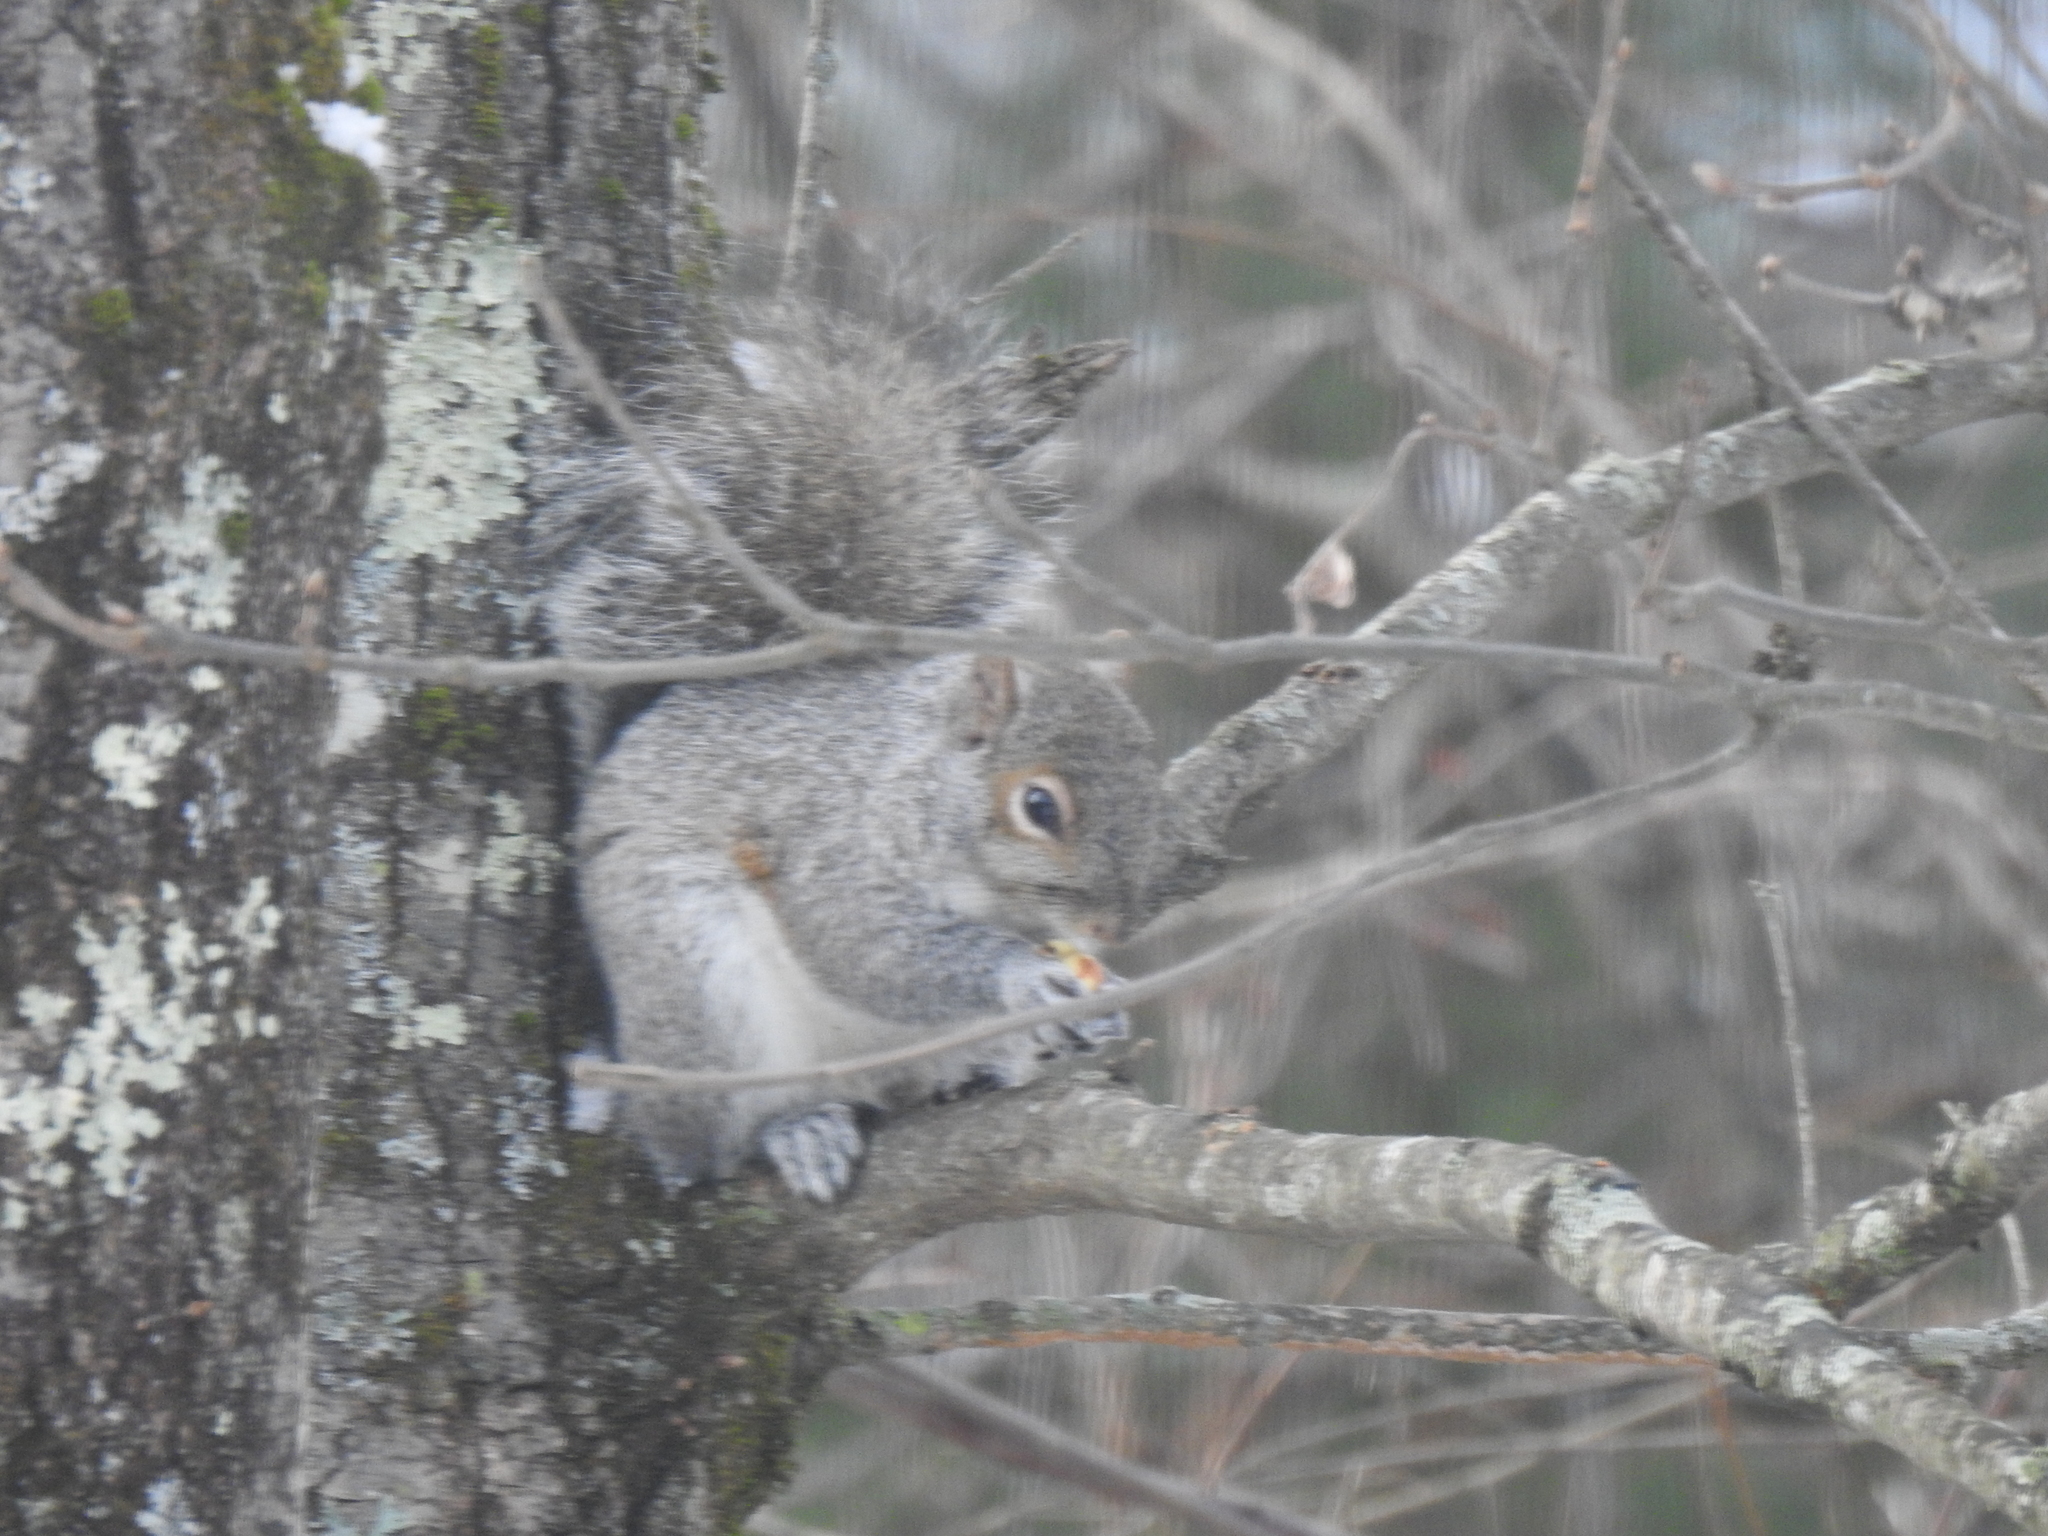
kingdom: Animalia
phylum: Chordata
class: Mammalia
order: Rodentia
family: Sciuridae
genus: Sciurus
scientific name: Sciurus carolinensis
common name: Eastern gray squirrel
